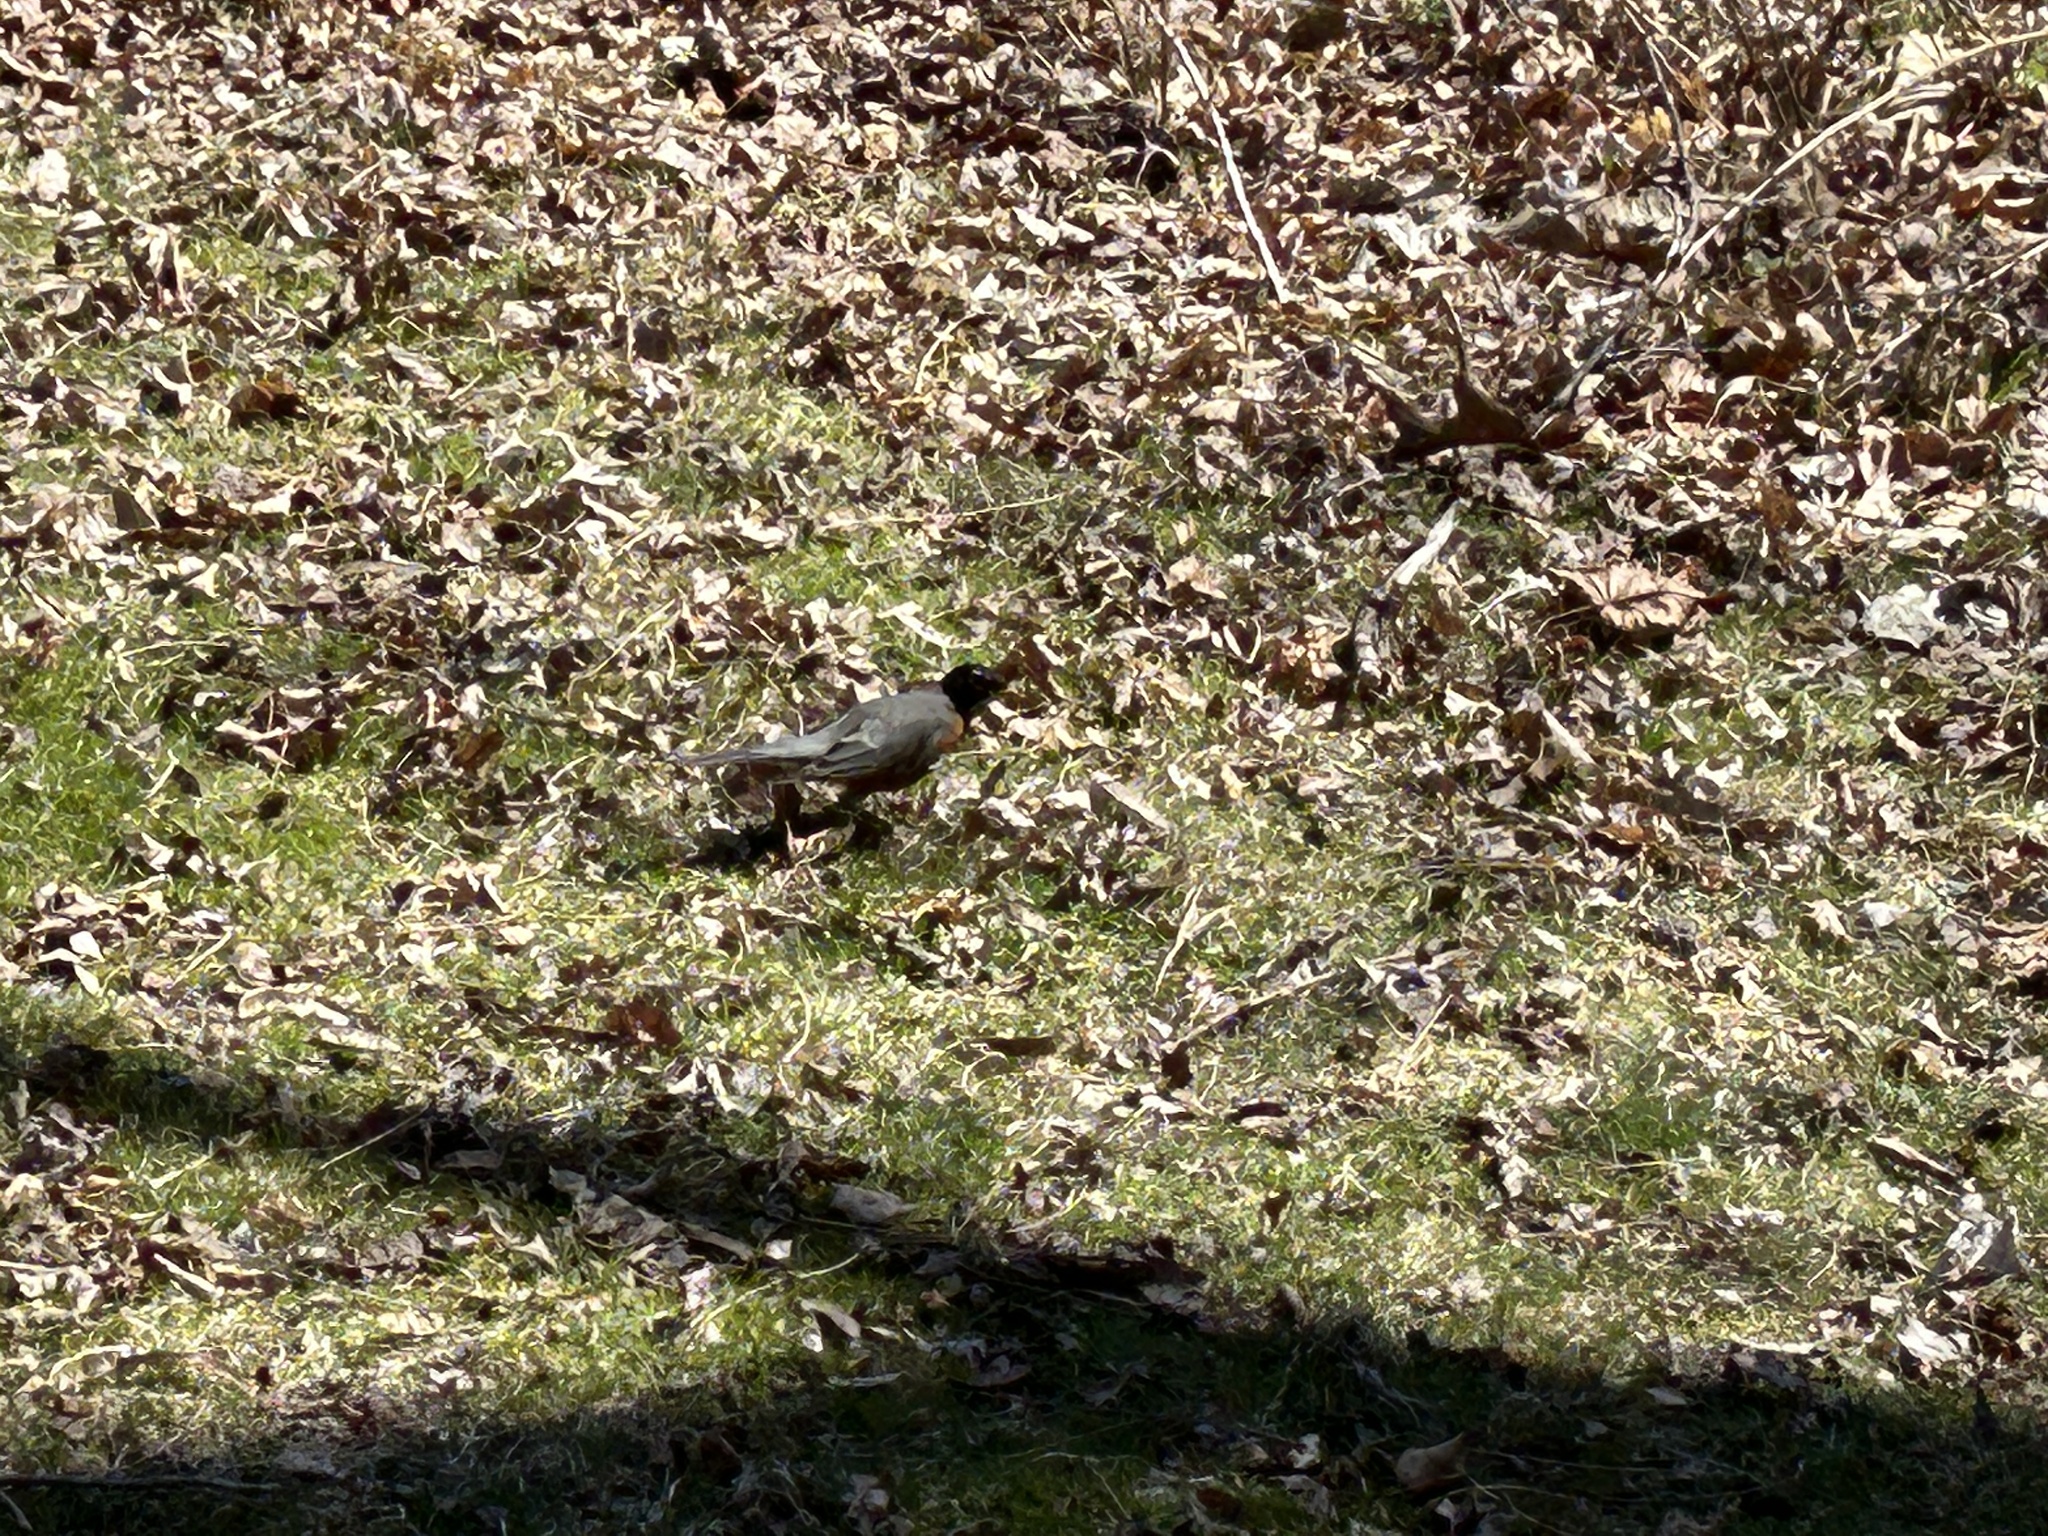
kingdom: Animalia
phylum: Chordata
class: Aves
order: Passeriformes
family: Turdidae
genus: Turdus
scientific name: Turdus migratorius
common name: American robin
